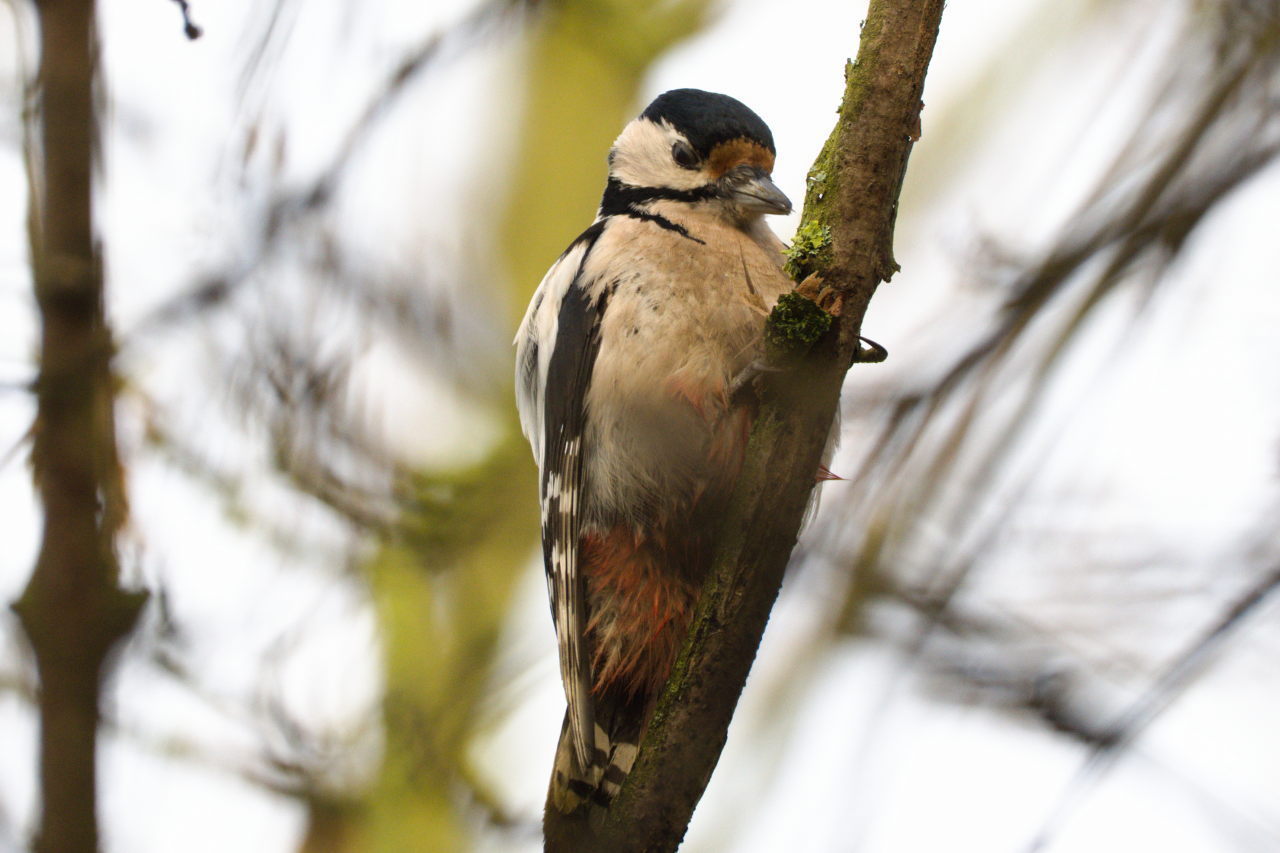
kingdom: Animalia
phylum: Chordata
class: Aves
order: Piciformes
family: Picidae
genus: Dendrocopos
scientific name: Dendrocopos major
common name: Great spotted woodpecker
